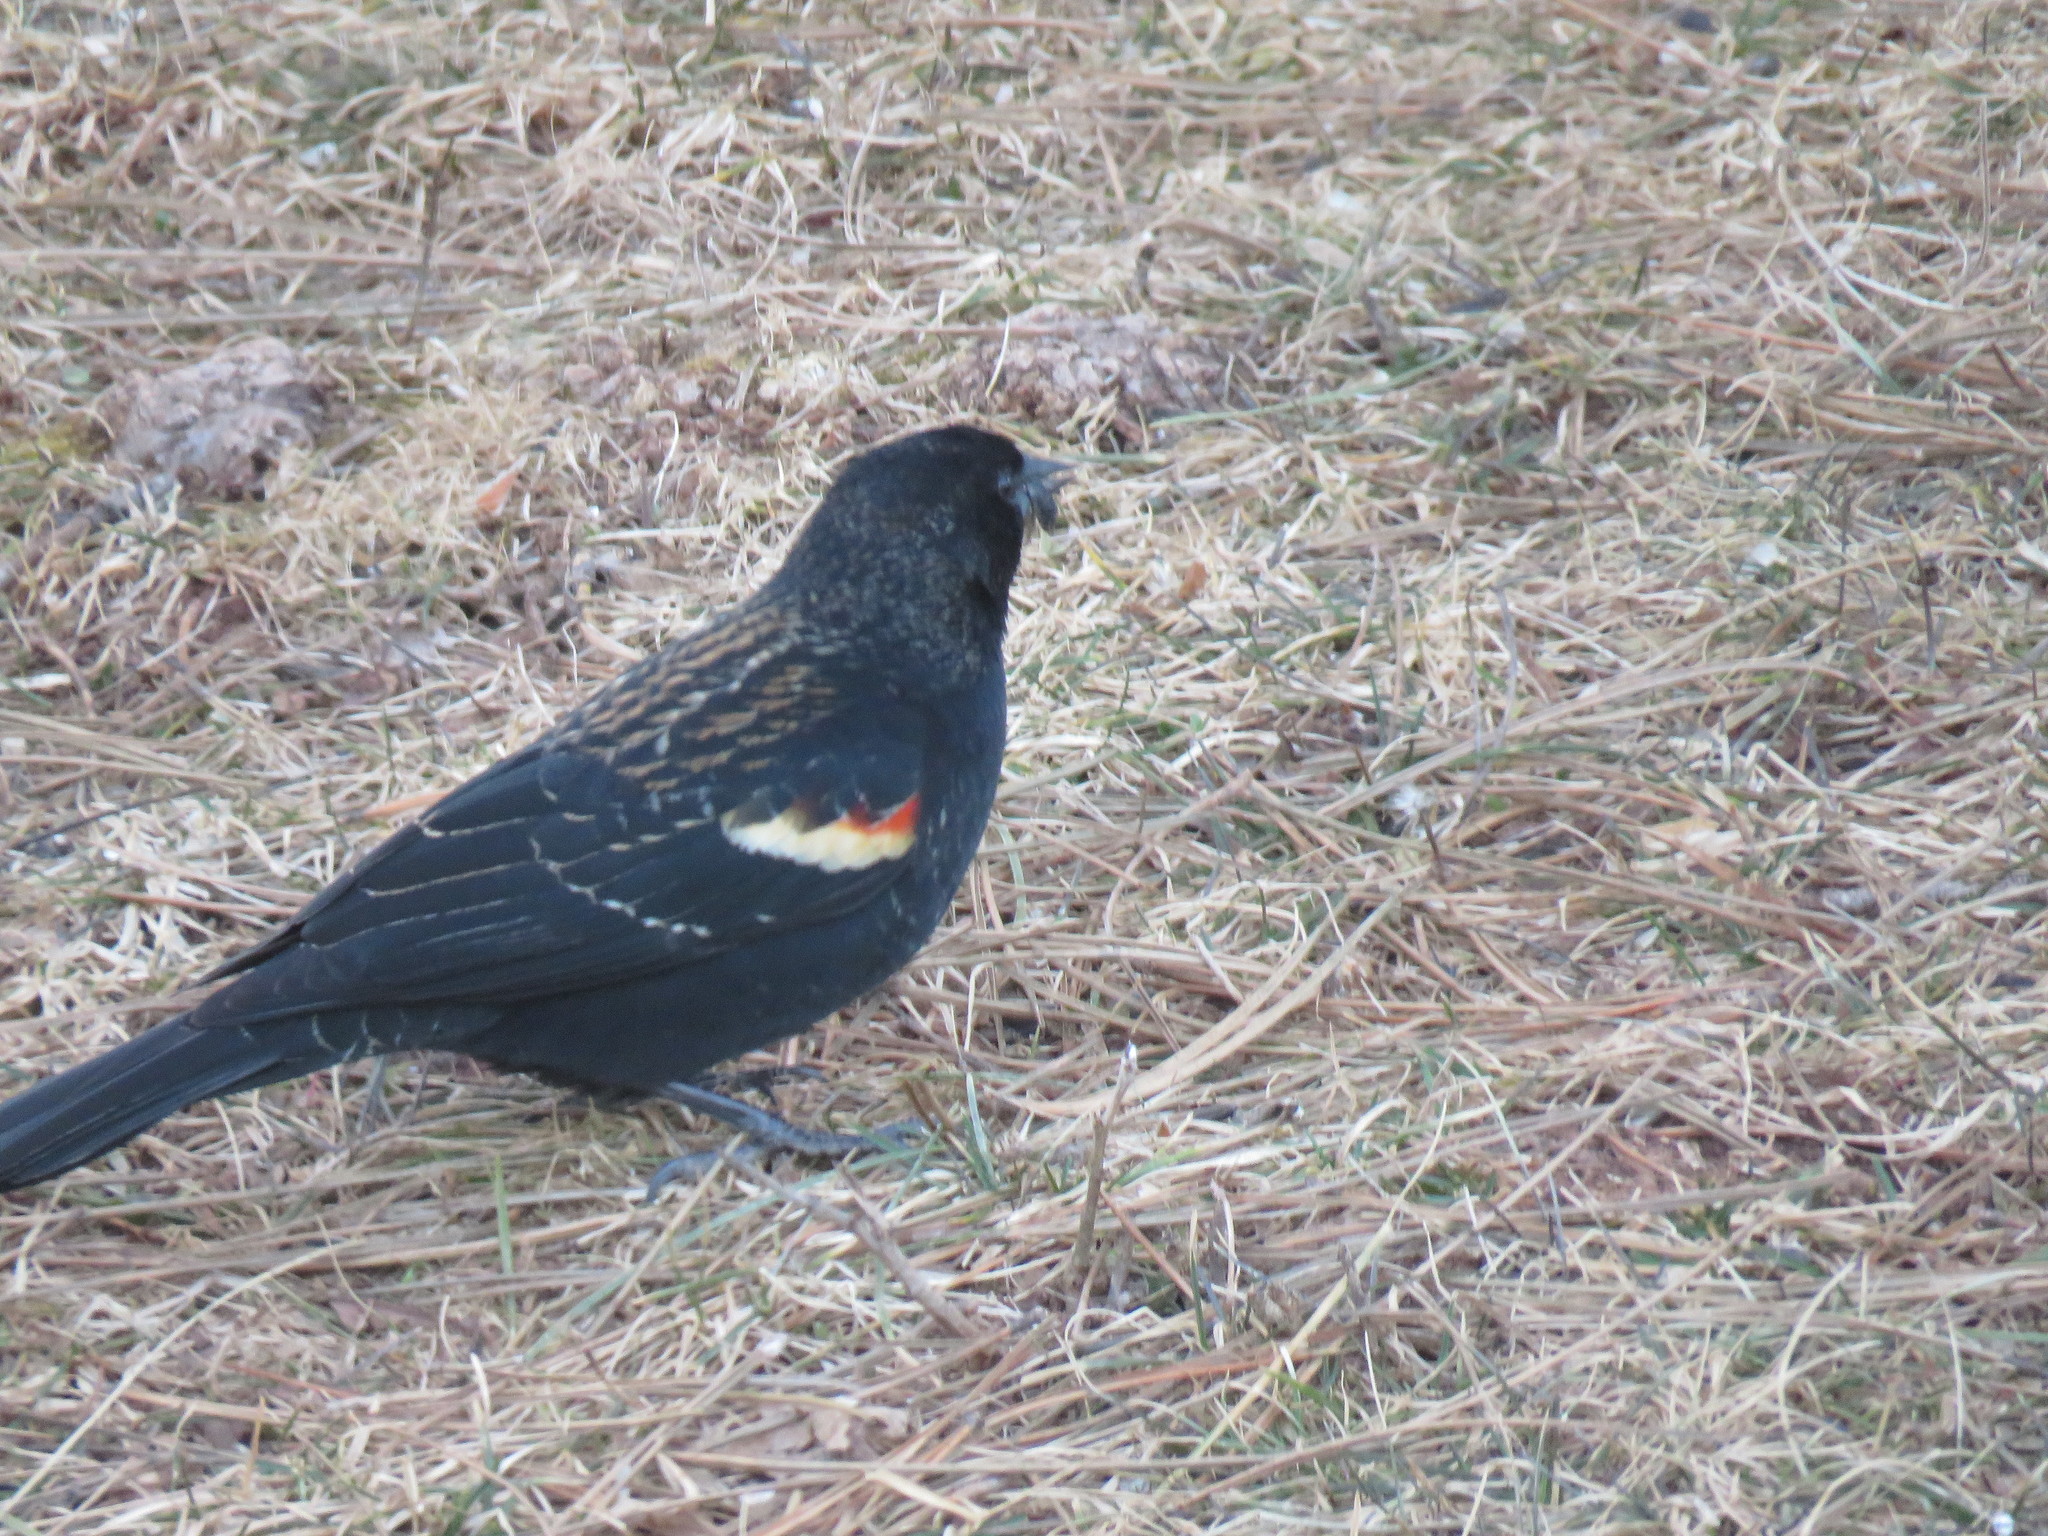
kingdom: Animalia
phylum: Chordata
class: Aves
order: Passeriformes
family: Icteridae
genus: Agelaius
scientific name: Agelaius phoeniceus
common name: Red-winged blackbird
